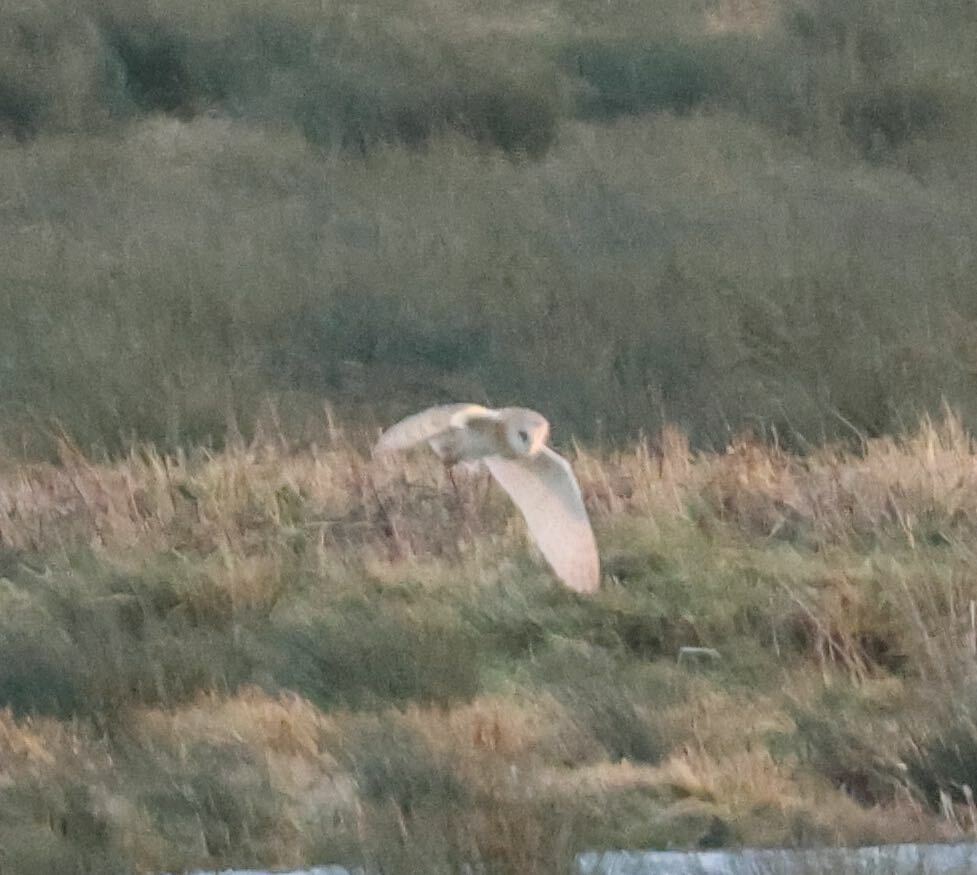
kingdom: Animalia
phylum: Chordata
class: Aves
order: Strigiformes
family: Tytonidae
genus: Tyto
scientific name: Tyto alba
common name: Barn owl
